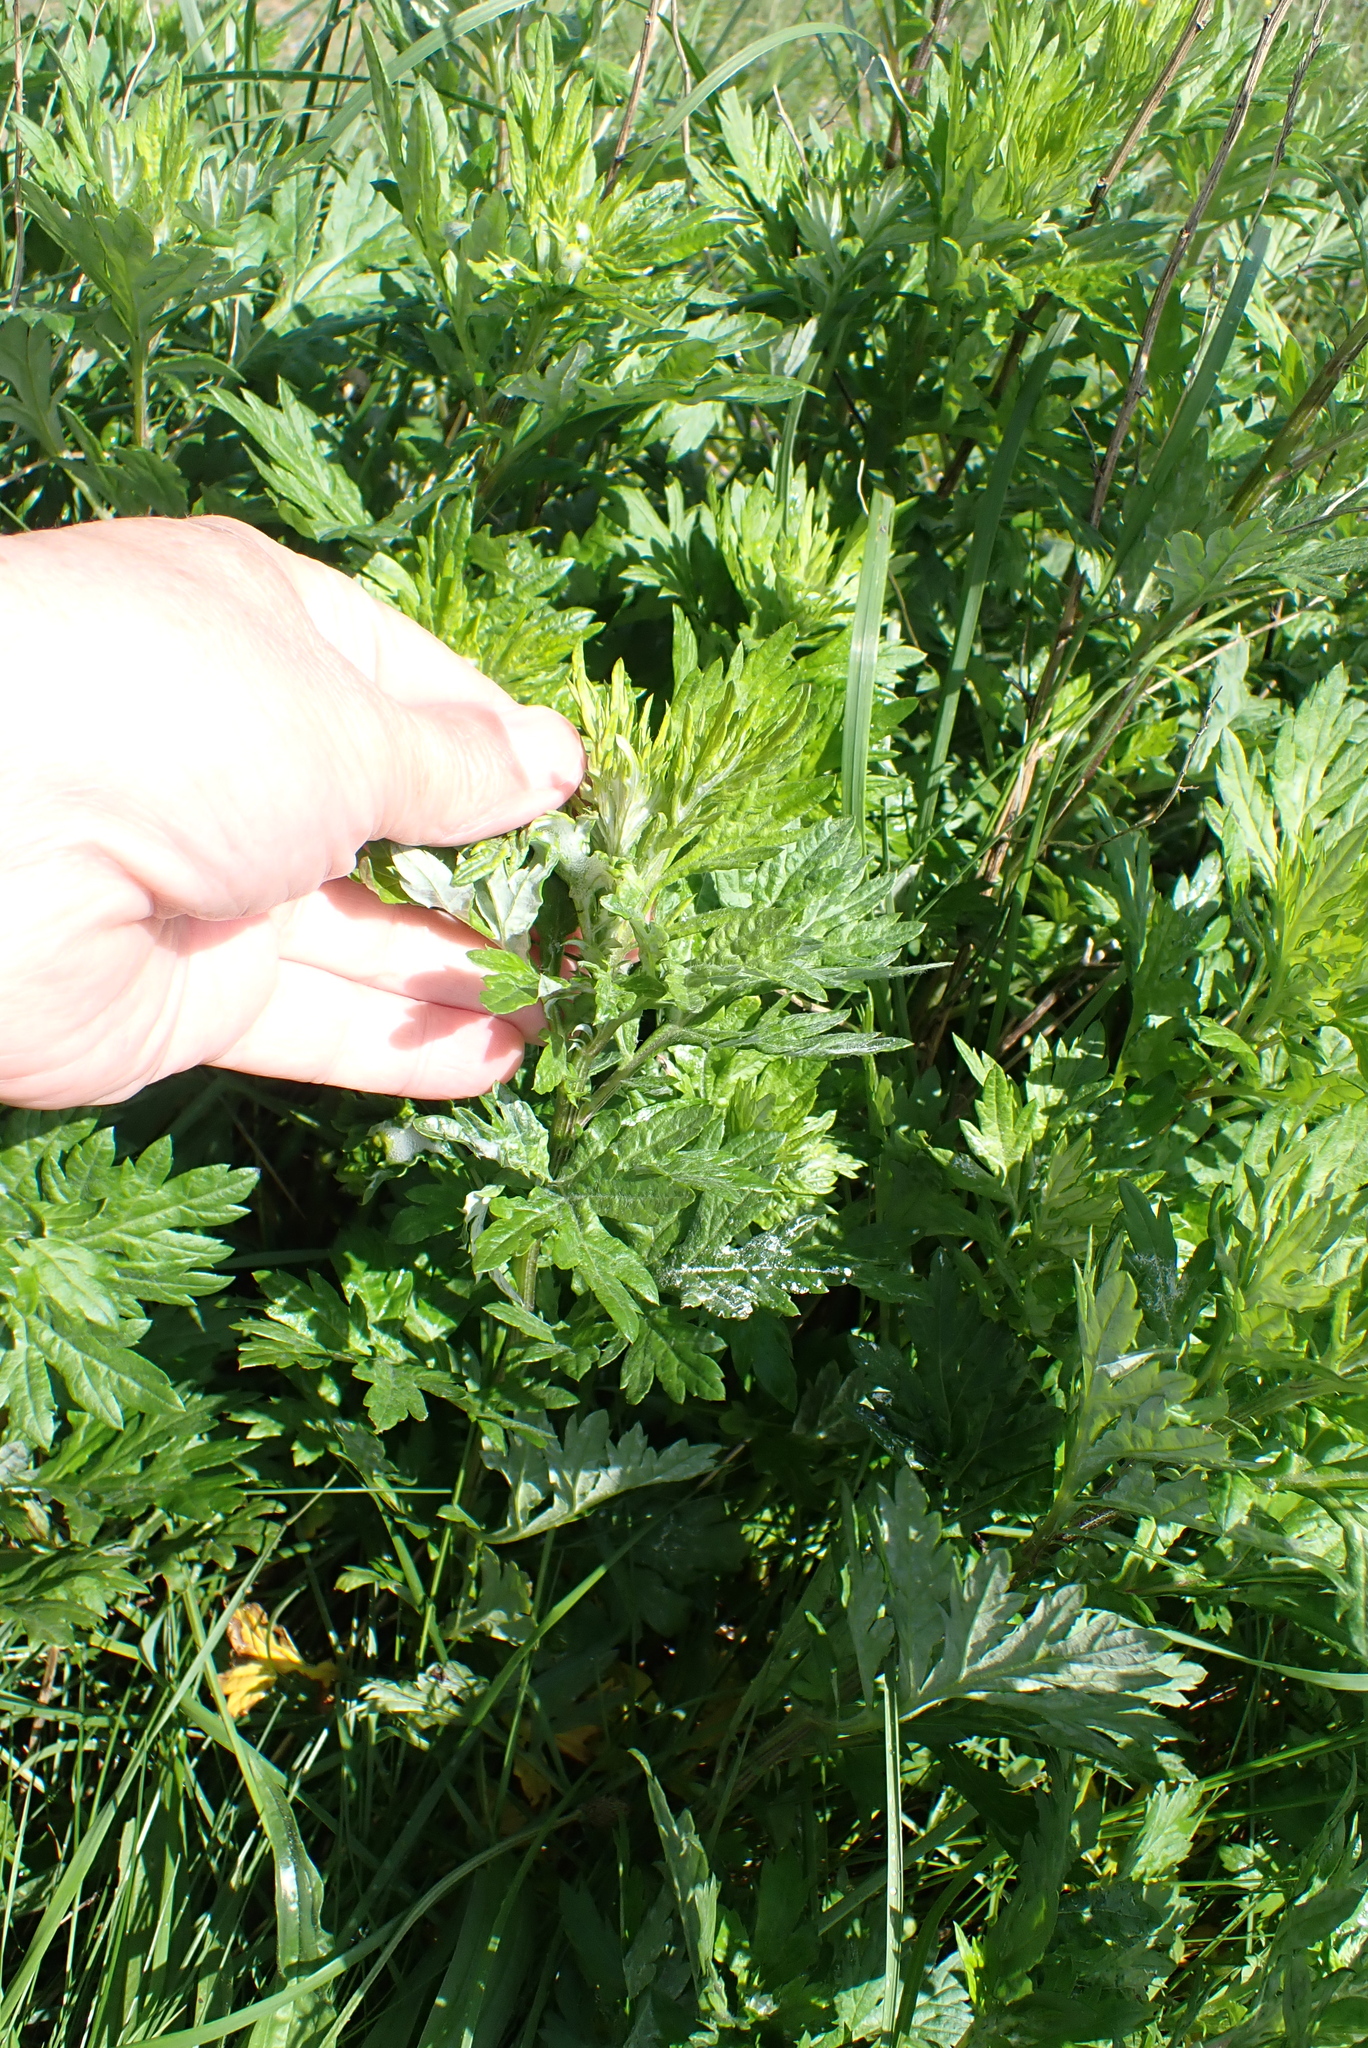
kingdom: Plantae
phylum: Tracheophyta
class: Magnoliopsida
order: Asterales
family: Asteraceae
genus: Artemisia
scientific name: Artemisia vulgaris
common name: Mugwort
